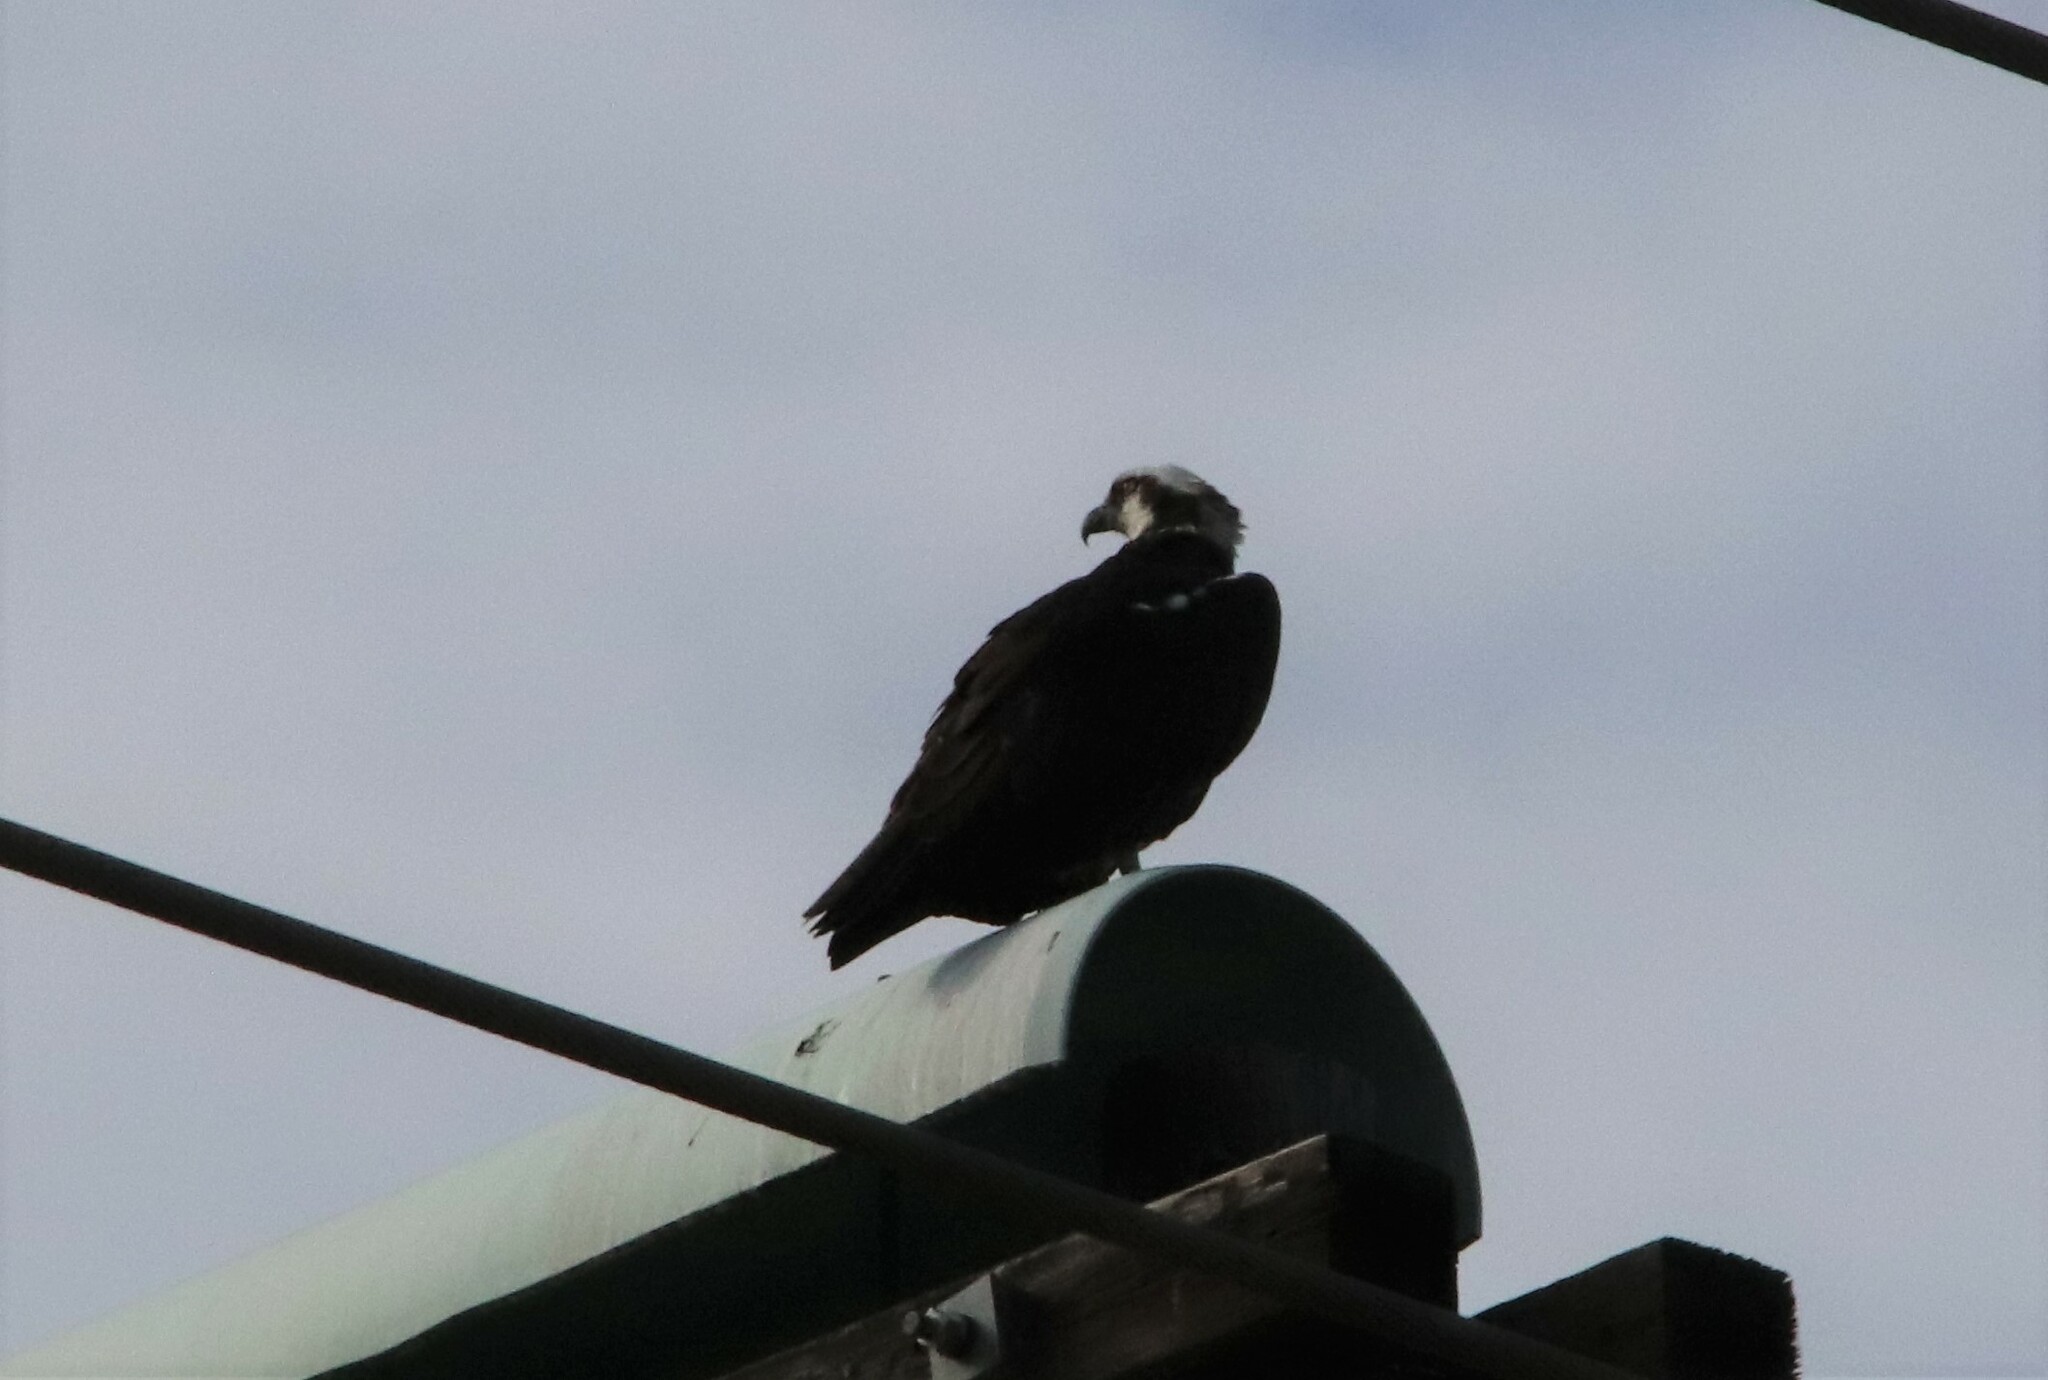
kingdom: Animalia
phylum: Chordata
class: Aves
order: Accipitriformes
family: Pandionidae
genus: Pandion
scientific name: Pandion haliaetus
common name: Osprey
